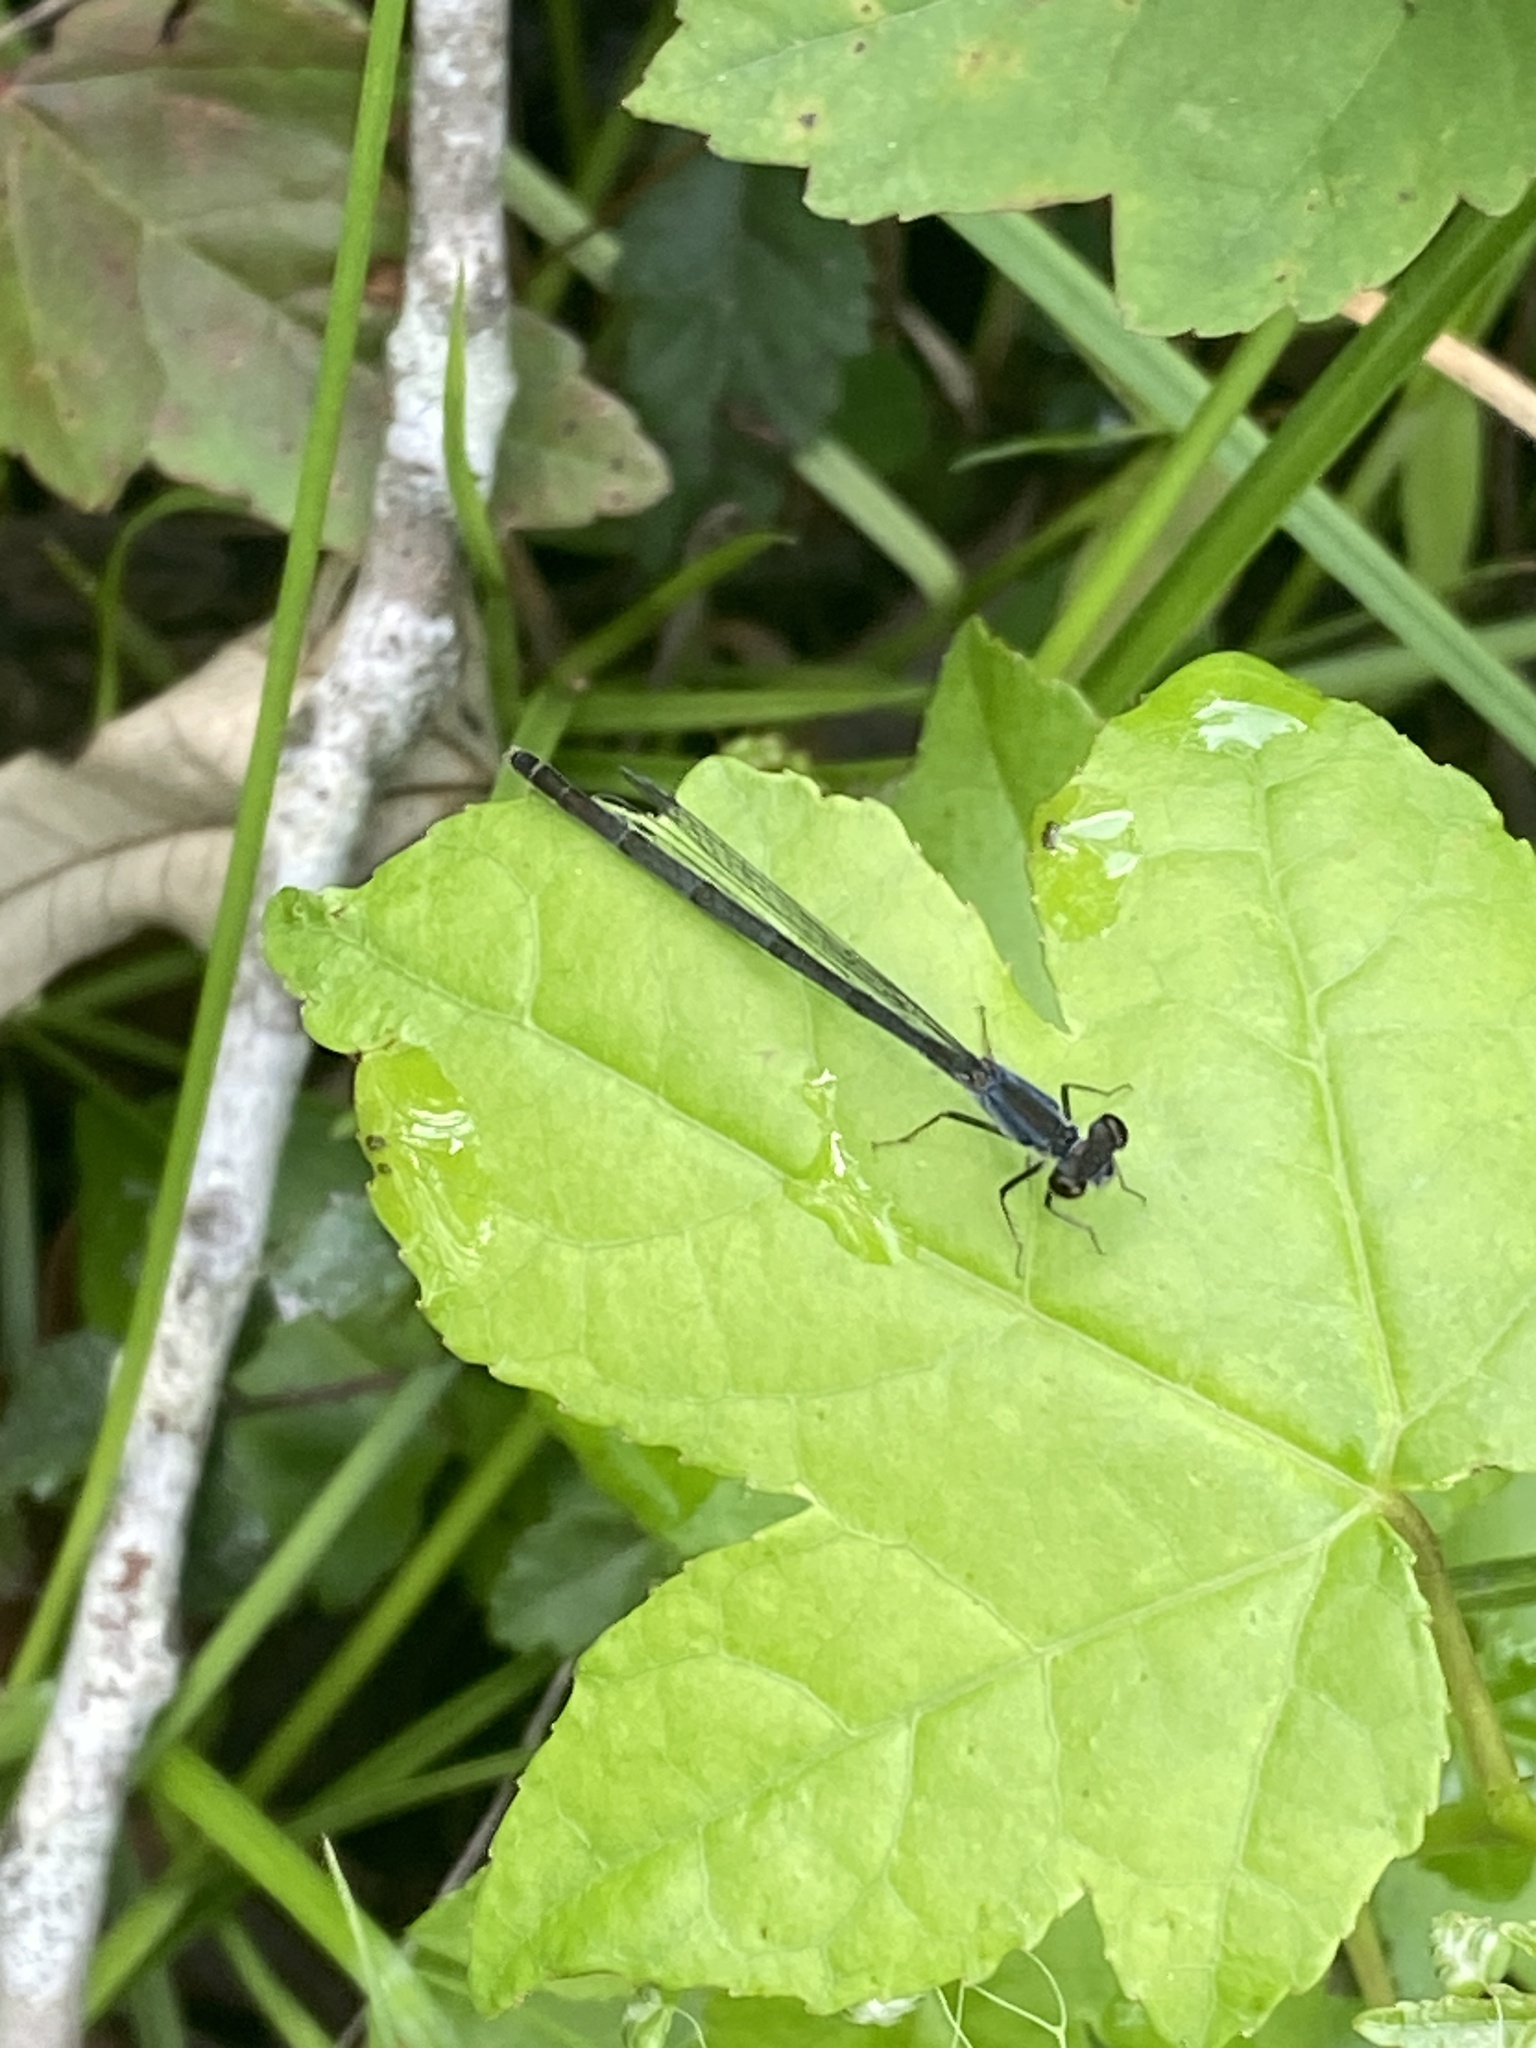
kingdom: Animalia
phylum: Arthropoda
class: Insecta
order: Odonata
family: Coenagrionidae
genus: Ischnura
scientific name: Ischnura posita
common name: Fragile forktail
